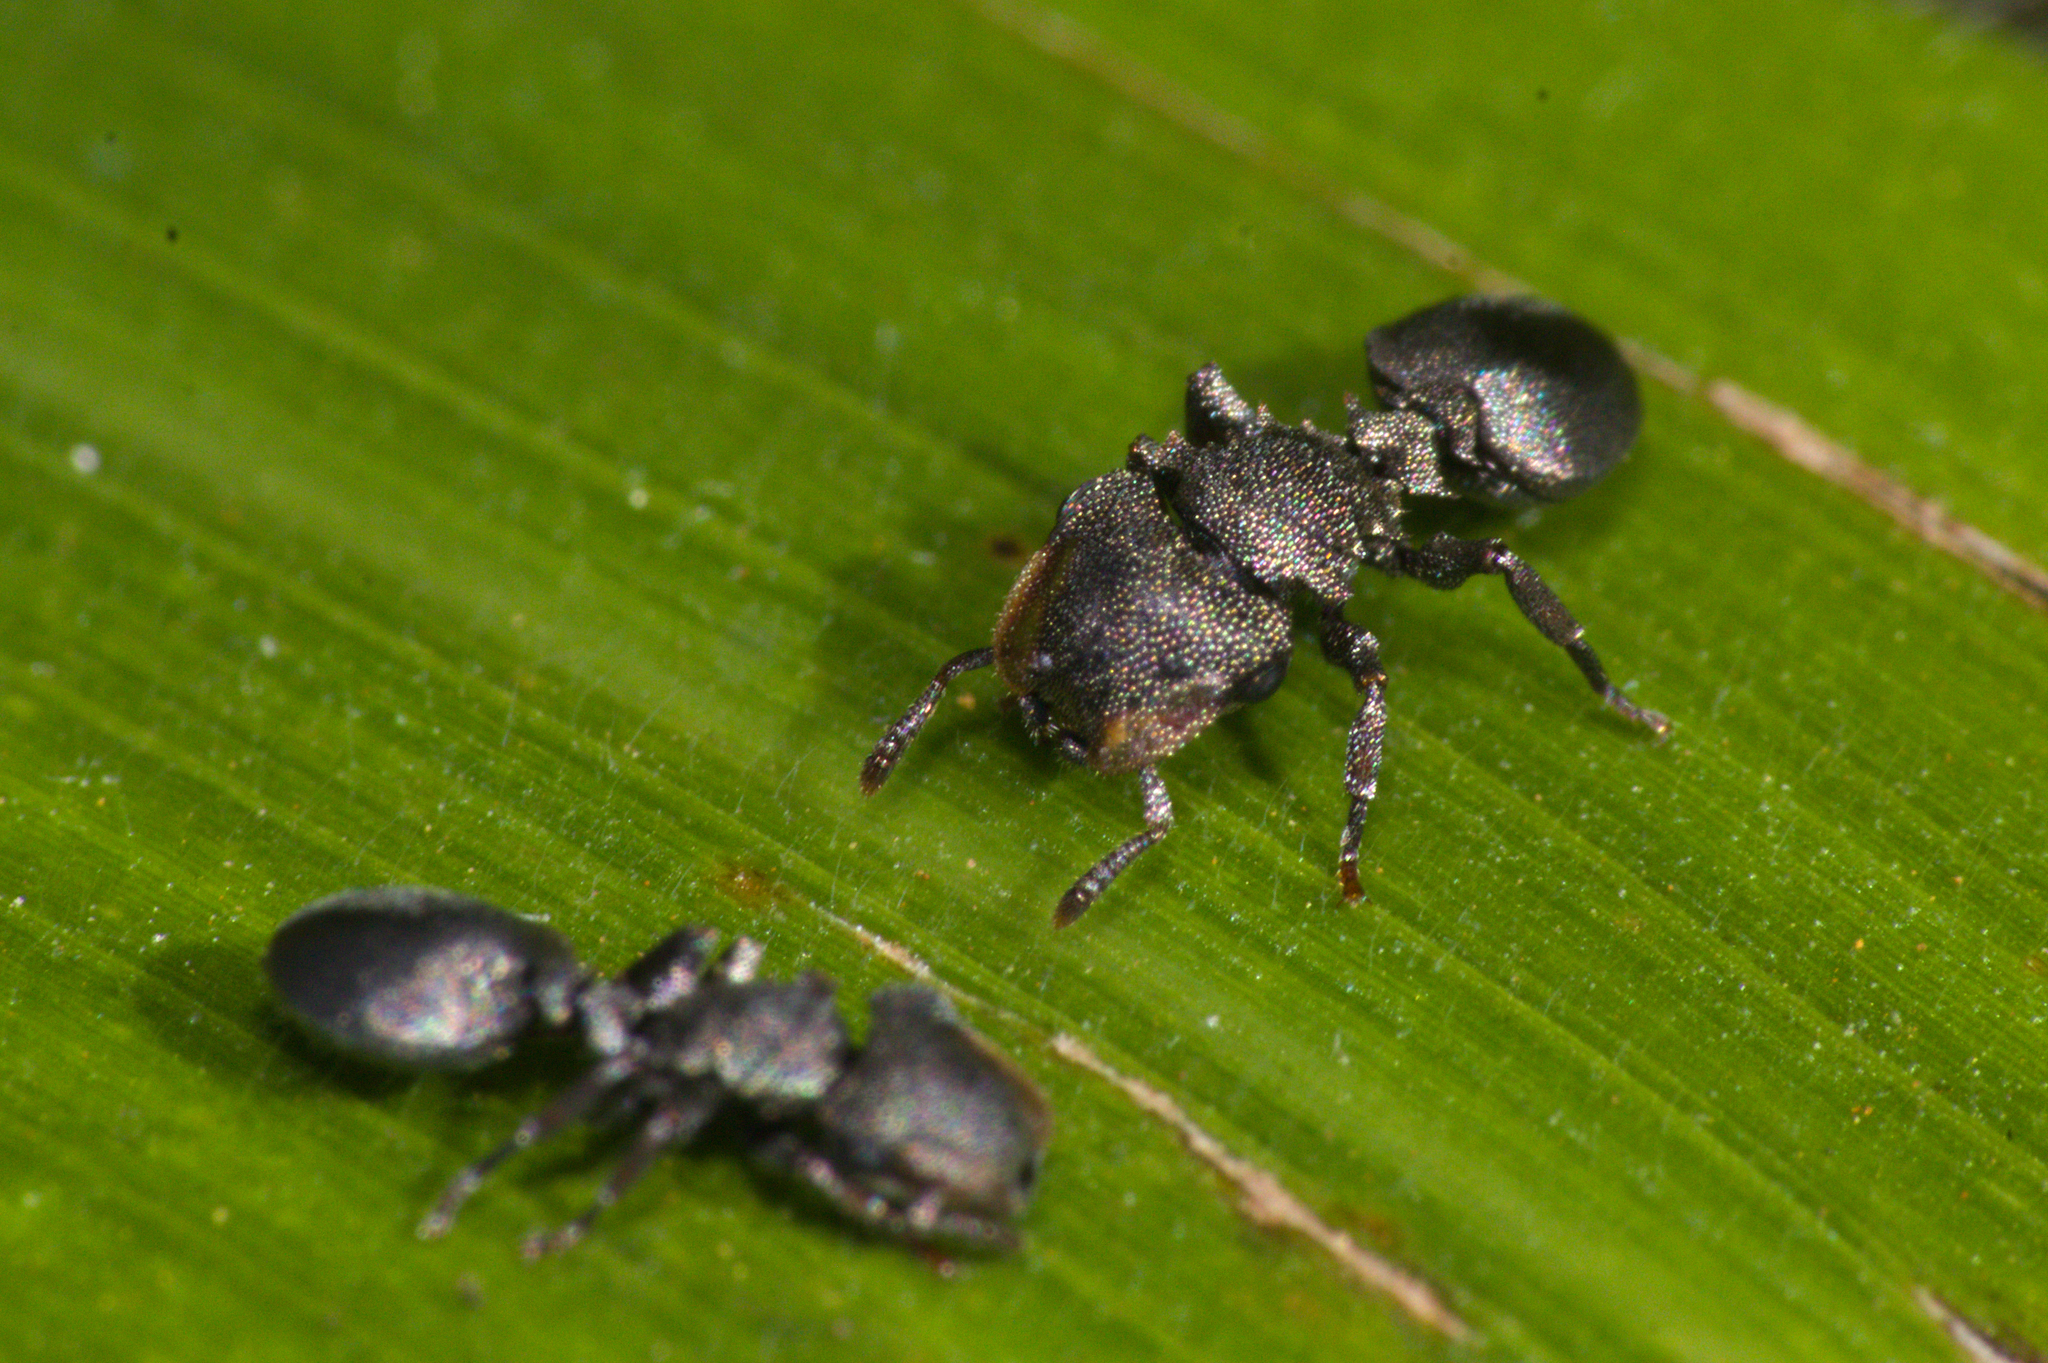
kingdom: Animalia
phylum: Arthropoda
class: Insecta
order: Hymenoptera
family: Formicidae
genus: Cephalotes
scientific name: Cephalotes depressus
